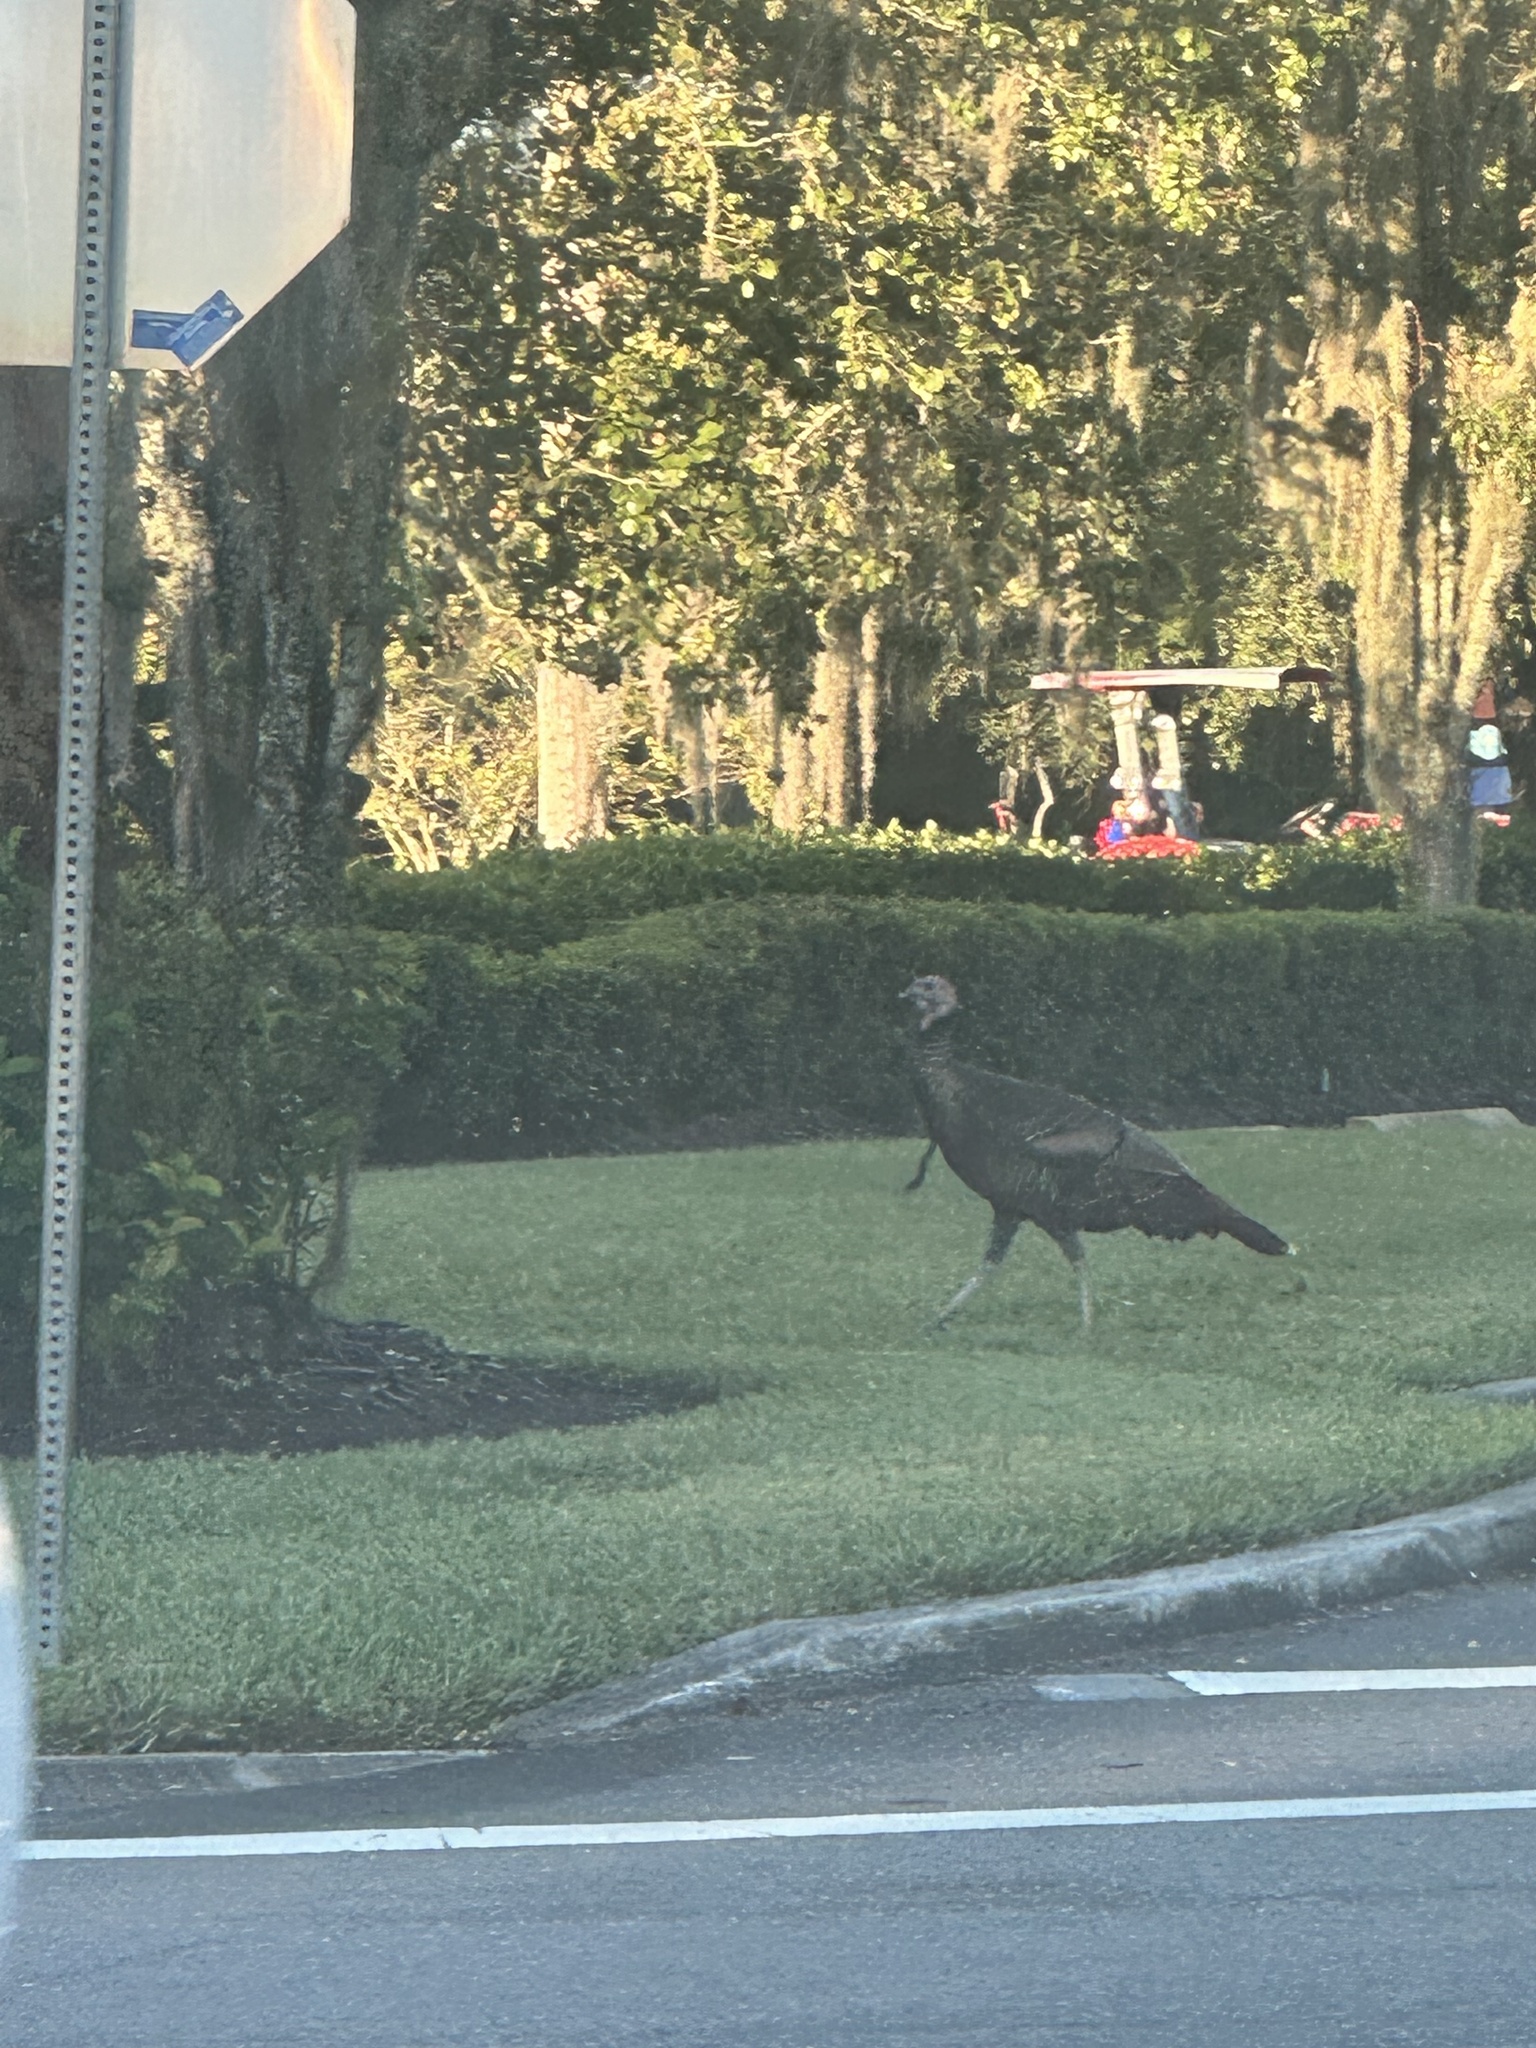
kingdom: Animalia
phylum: Chordata
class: Aves
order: Galliformes
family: Phasianidae
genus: Meleagris
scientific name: Meleagris gallopavo
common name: Wild turkey
